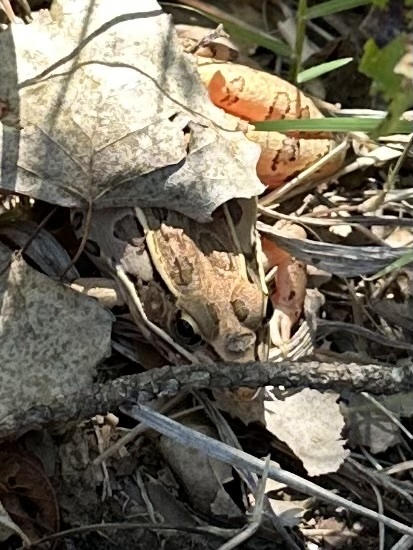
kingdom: Animalia
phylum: Chordata
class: Amphibia
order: Anura
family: Ranidae
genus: Lithobates
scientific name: Lithobates sphenocephalus
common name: Southern leopard frog
